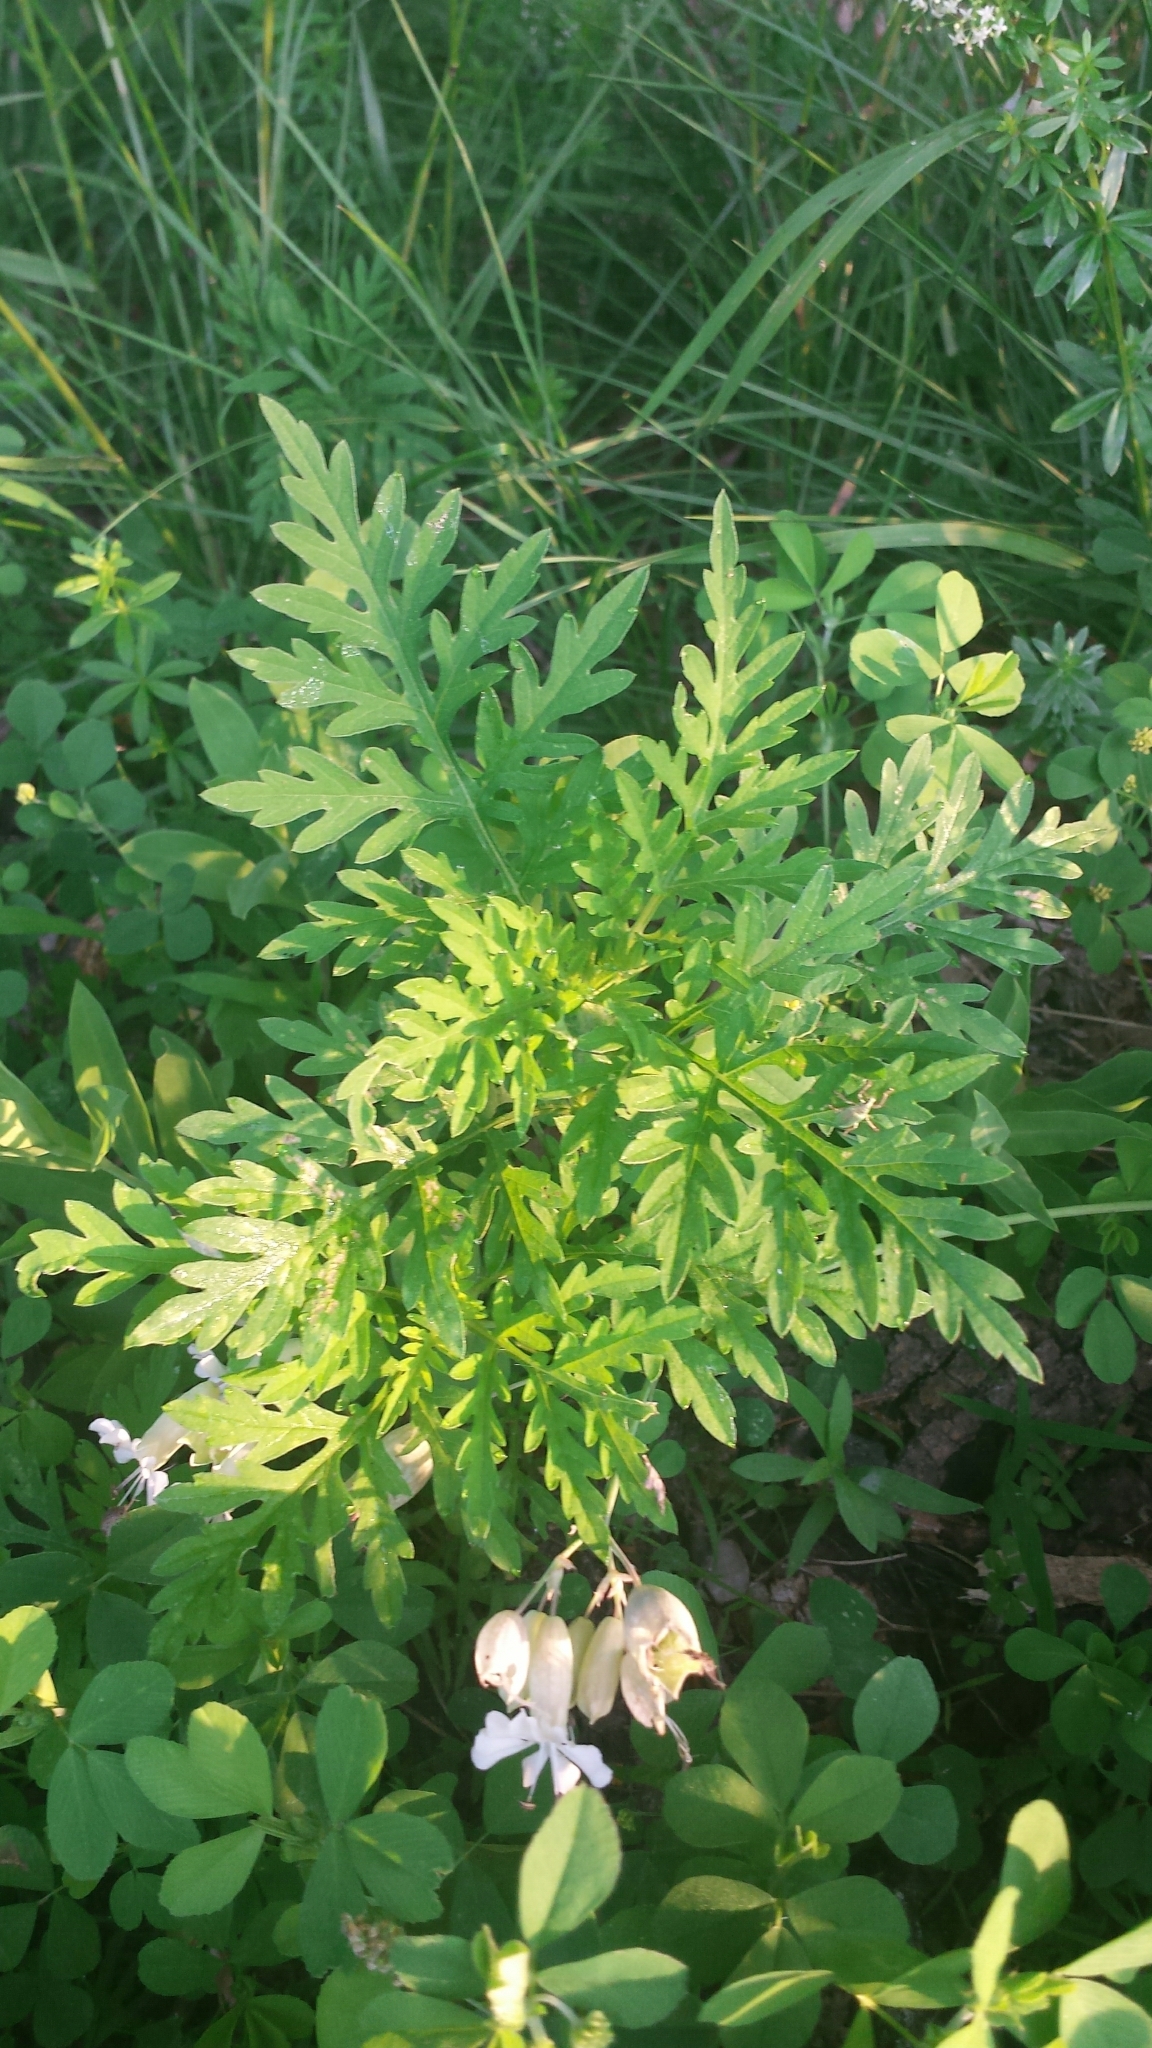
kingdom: Plantae
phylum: Tracheophyta
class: Magnoliopsida
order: Asterales
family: Asteraceae
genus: Ambrosia
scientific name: Ambrosia artemisiifolia
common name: Annual ragweed
